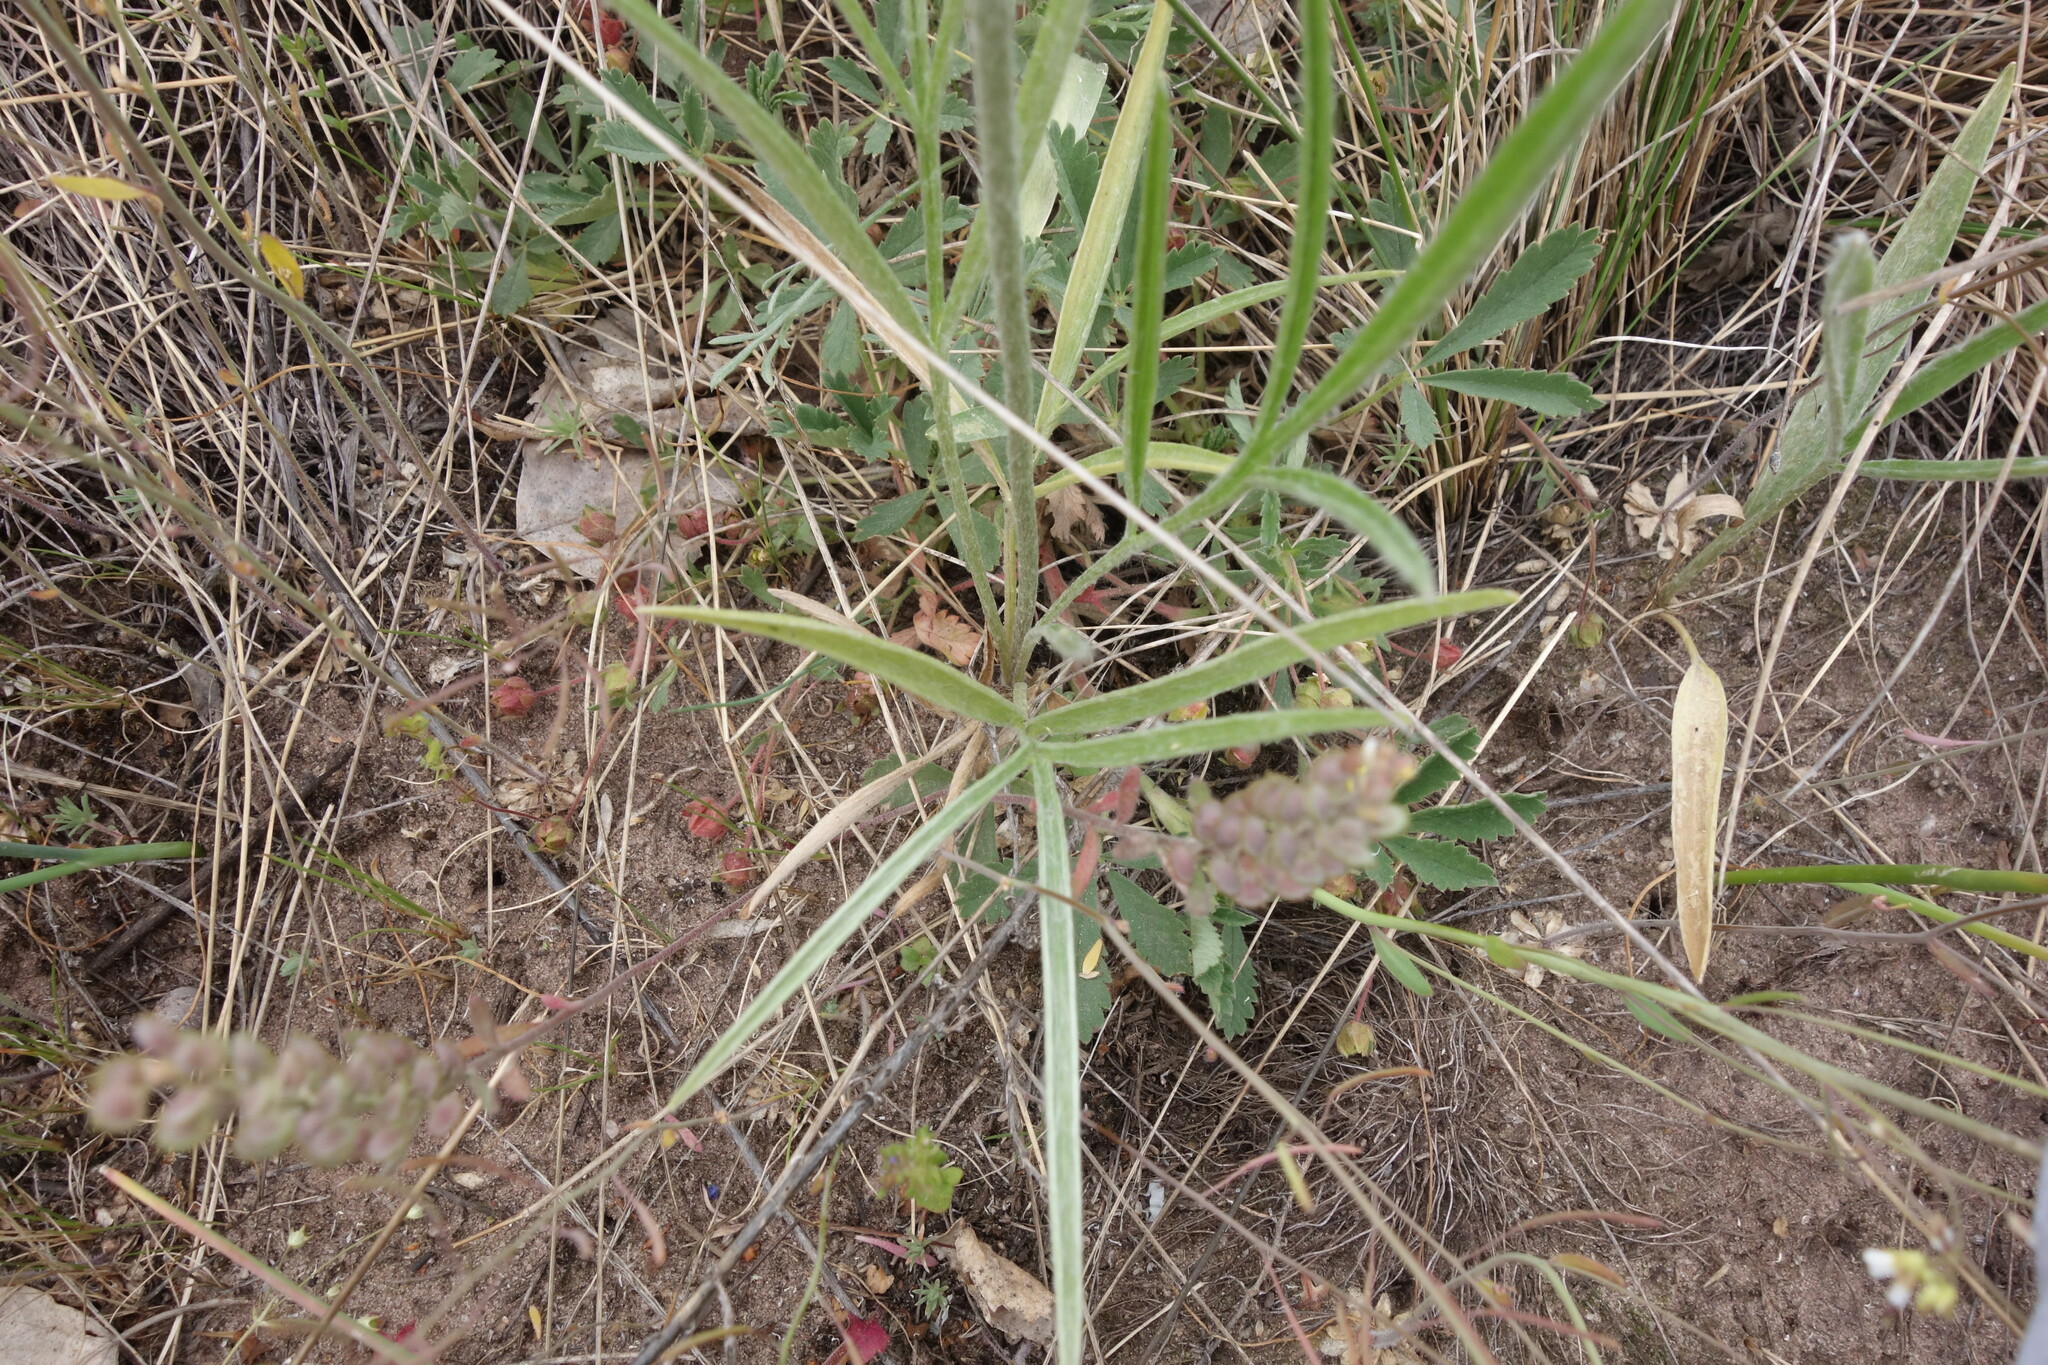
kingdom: Plantae
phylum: Tracheophyta
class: Magnoliopsida
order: Ranunculales
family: Ranunculaceae
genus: Ranunculus
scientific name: Ranunculus illyricus
